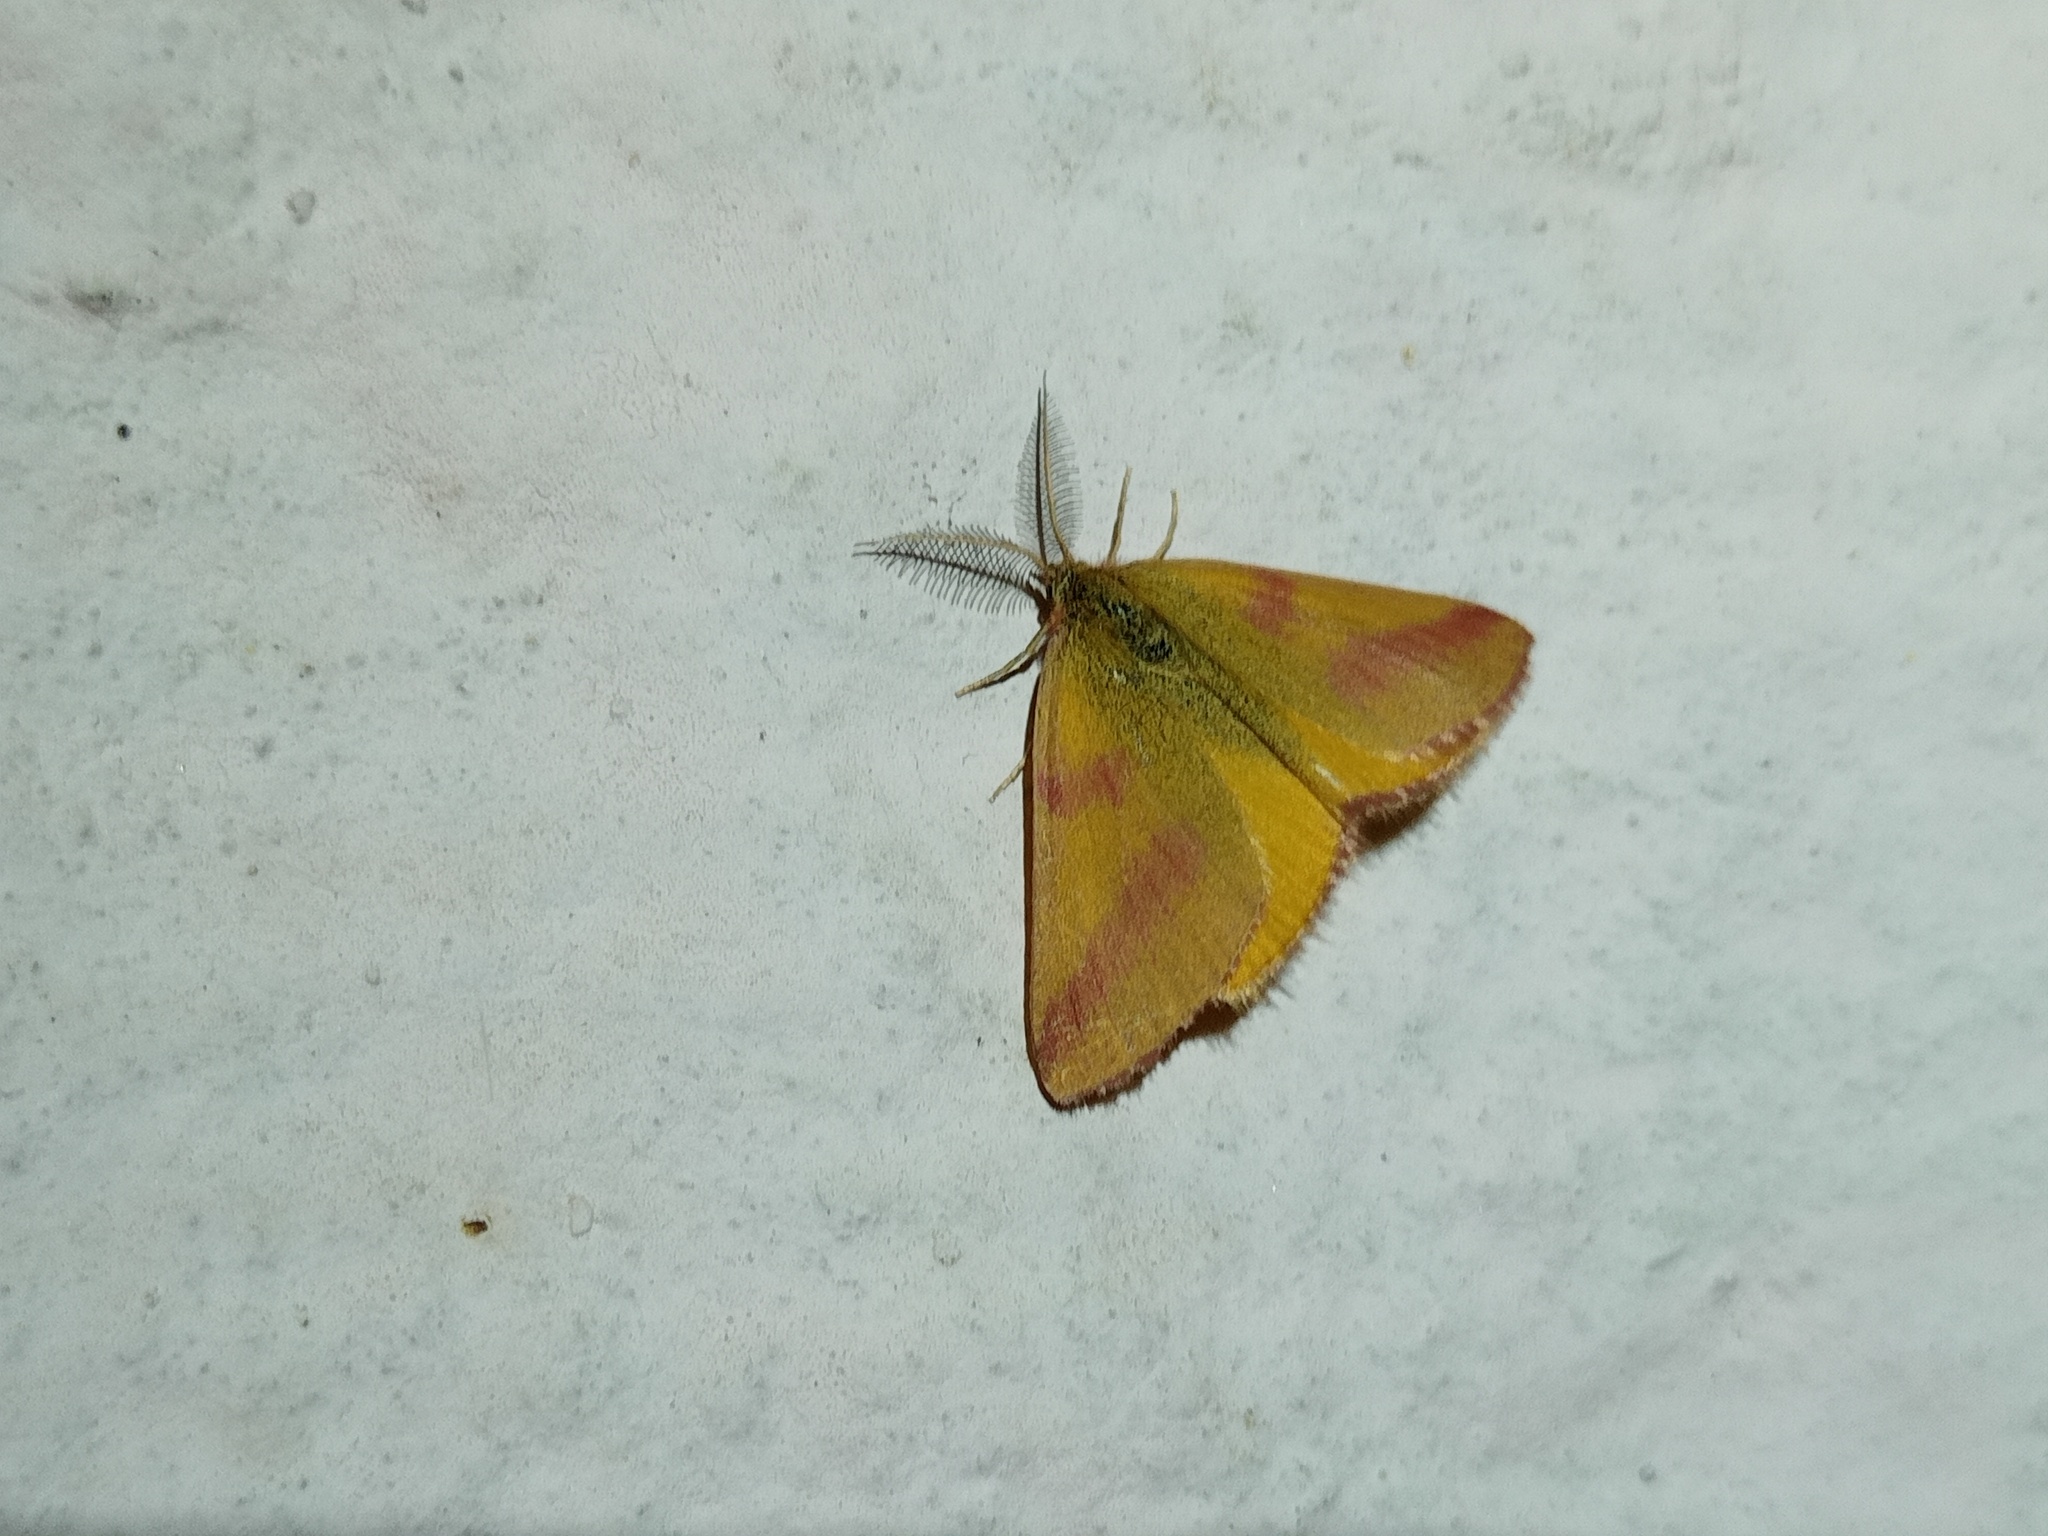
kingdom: Animalia
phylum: Arthropoda
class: Insecta
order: Lepidoptera
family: Geometridae
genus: Lythria
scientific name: Lythria purpuraria
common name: Purple-barred yellow
